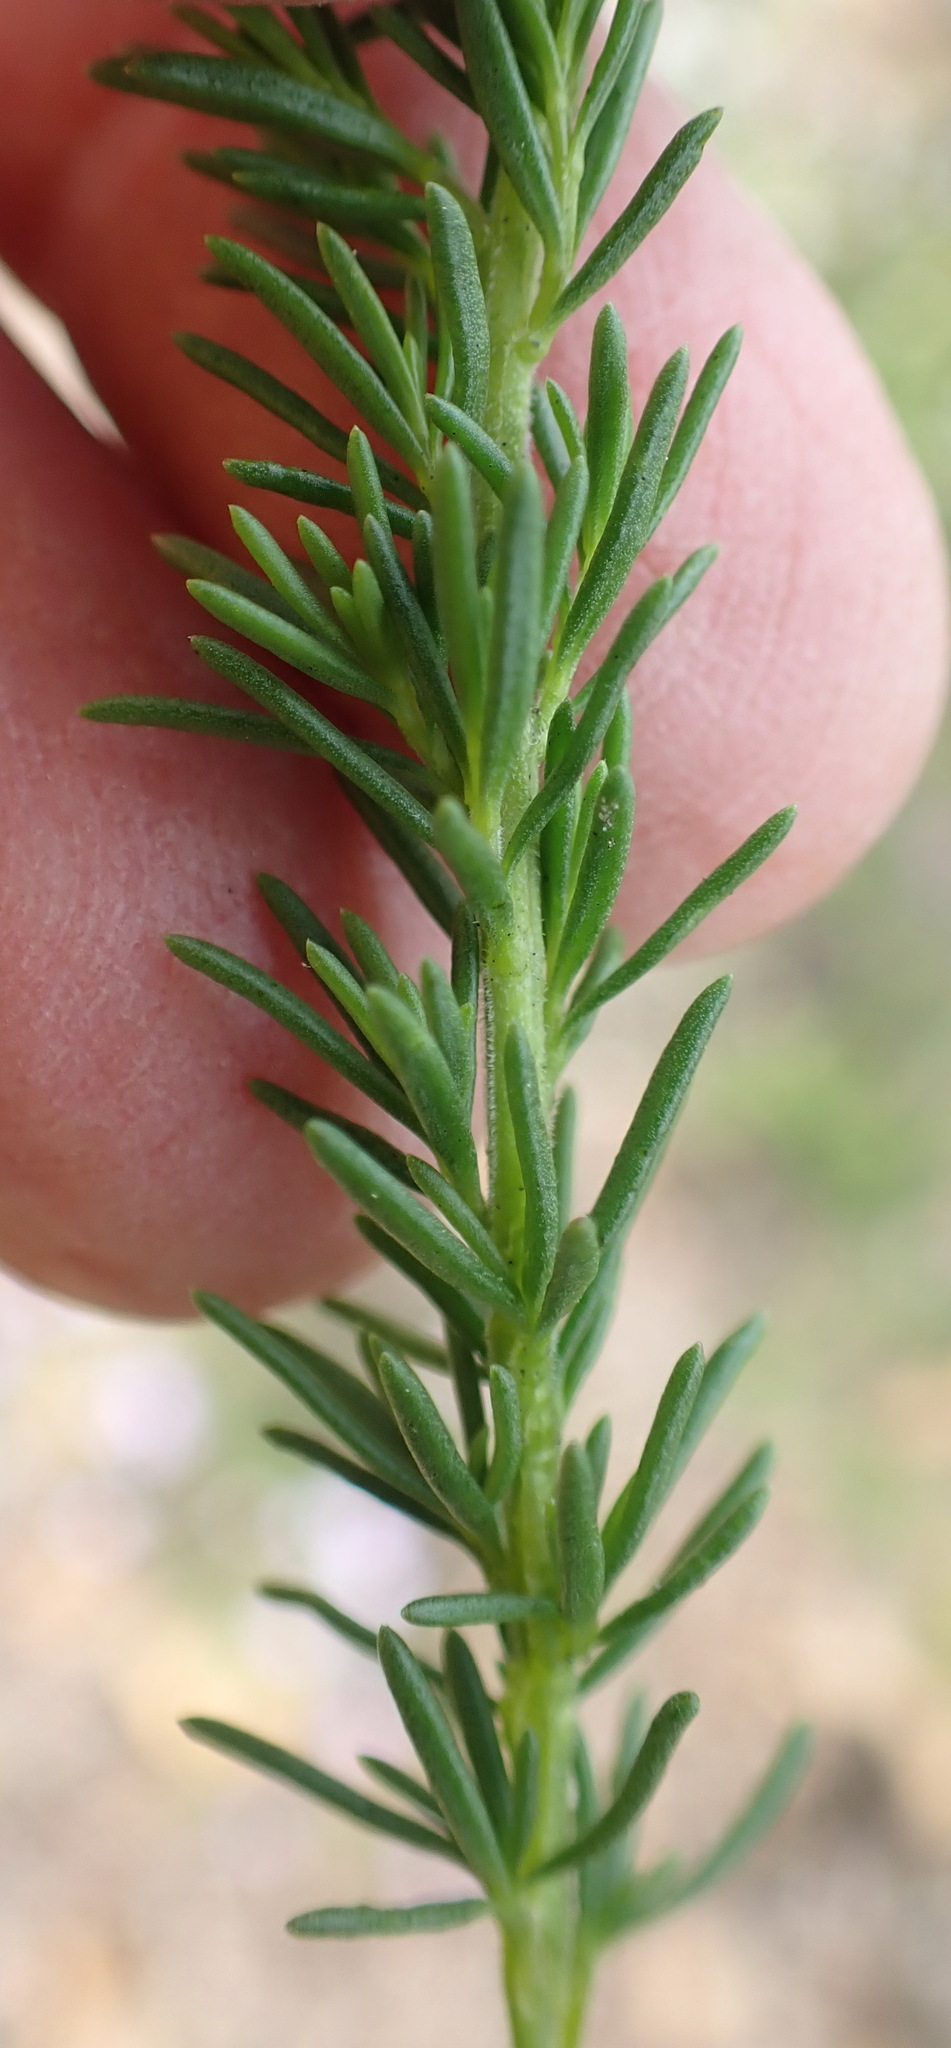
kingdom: Plantae
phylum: Tracheophyta
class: Magnoliopsida
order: Lamiales
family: Scrophulariaceae
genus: Selago
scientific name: Selago canescens
